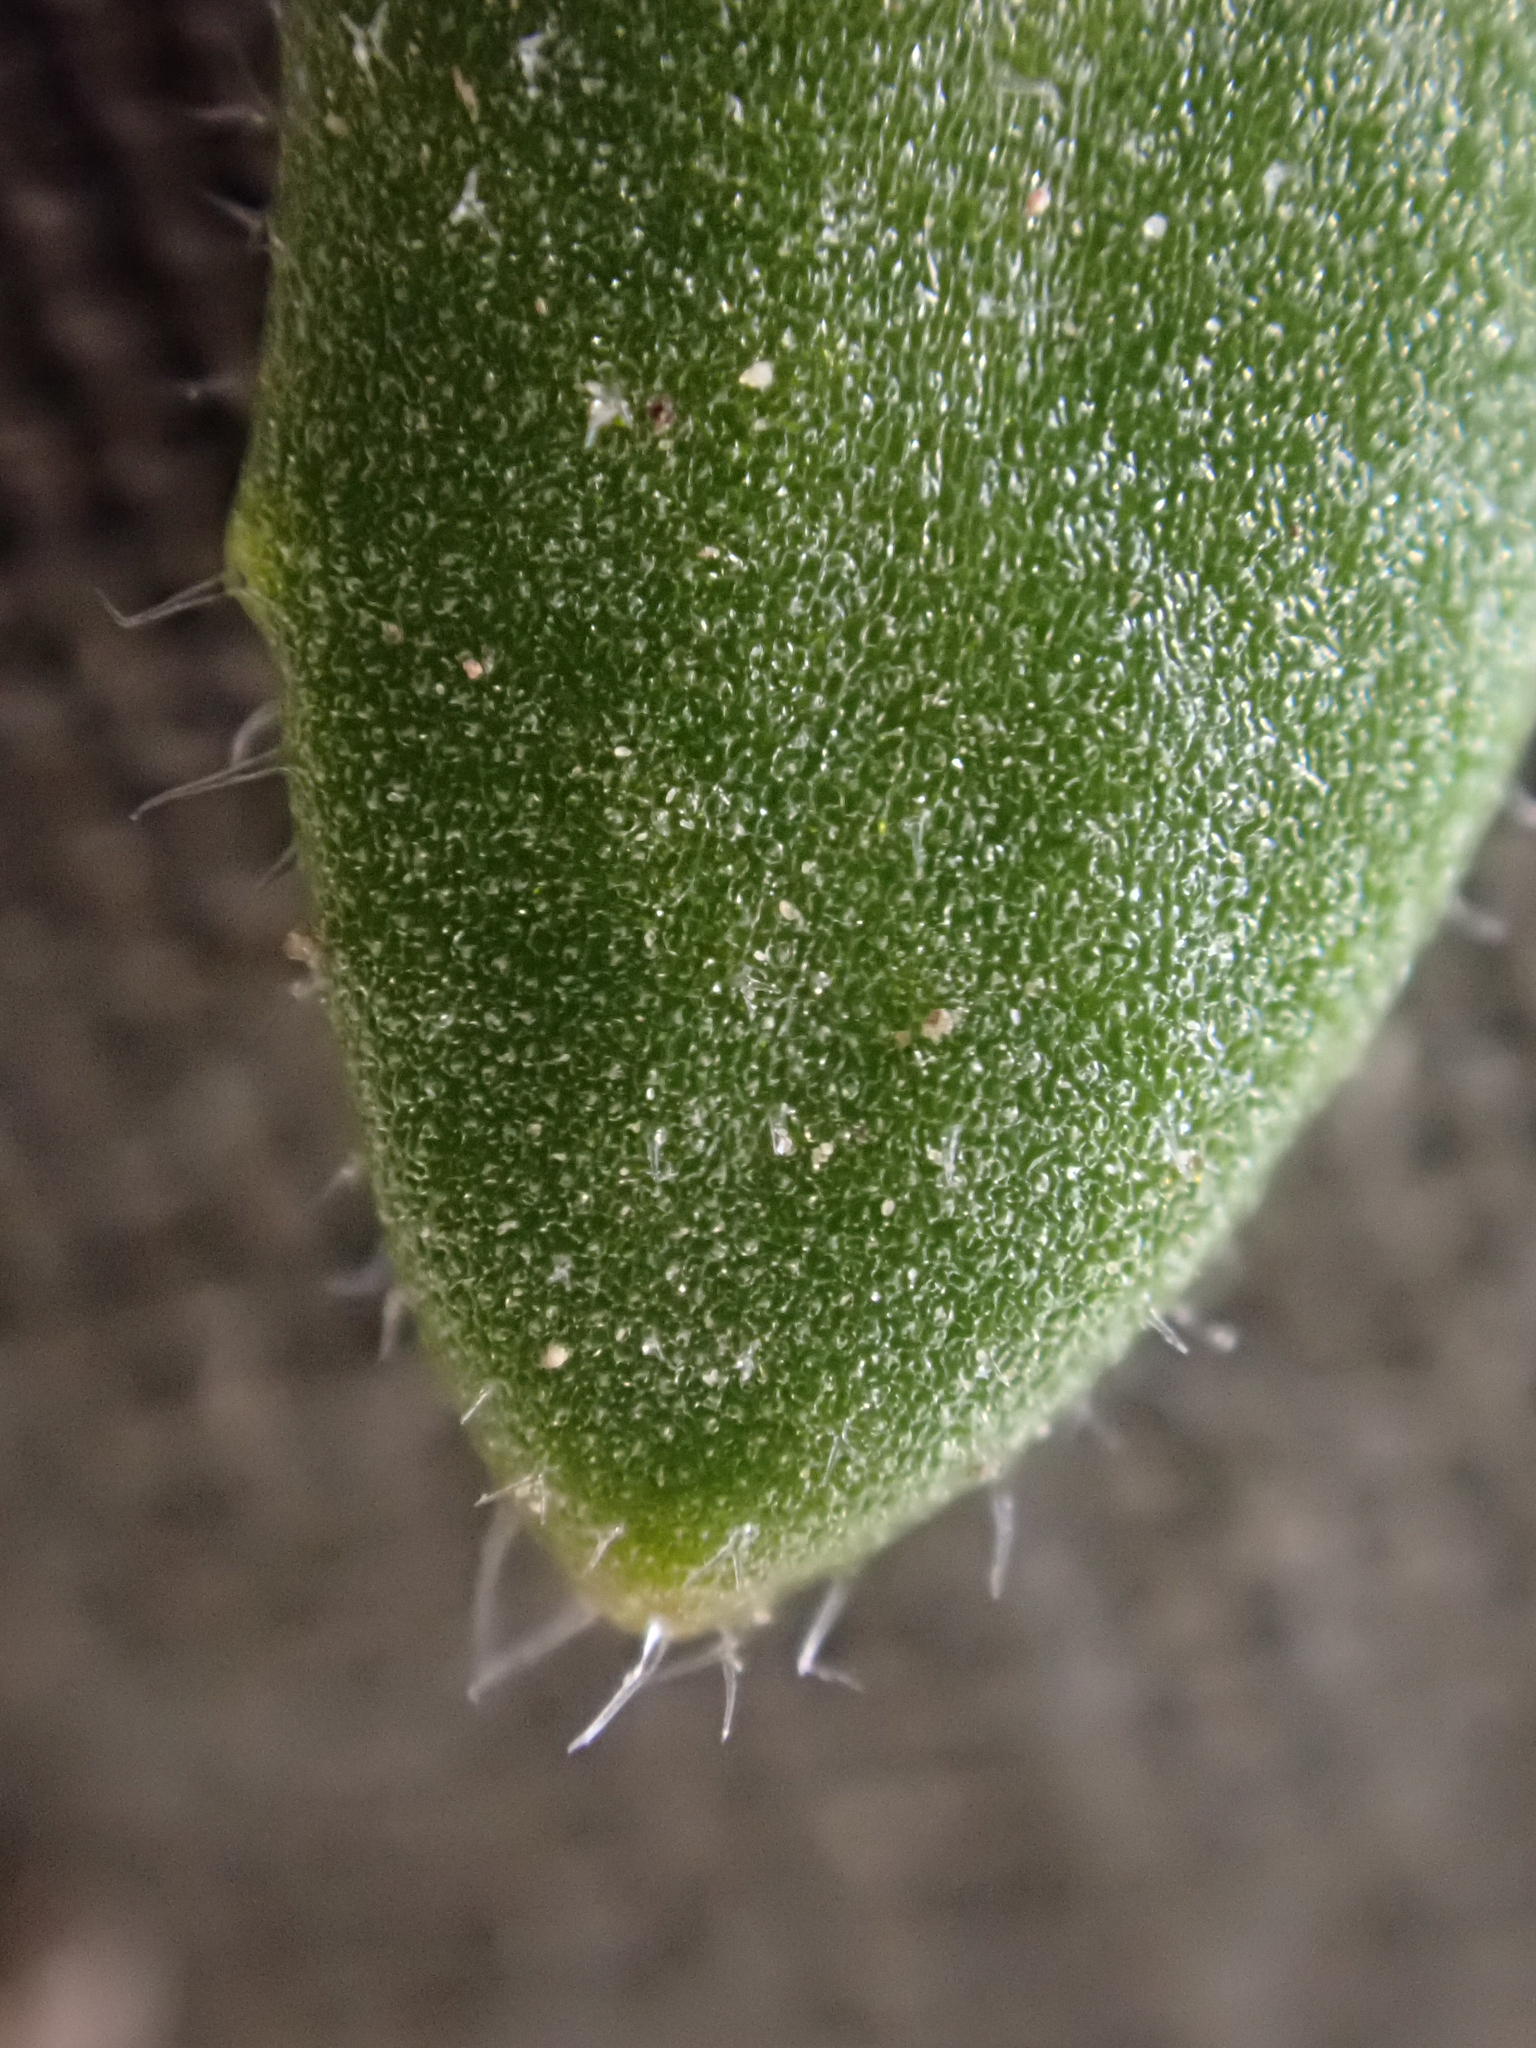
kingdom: Plantae
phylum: Tracheophyta
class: Magnoliopsida
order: Brassicales
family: Brassicaceae
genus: Draba
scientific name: Draba stenoloba
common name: Alaska draba
